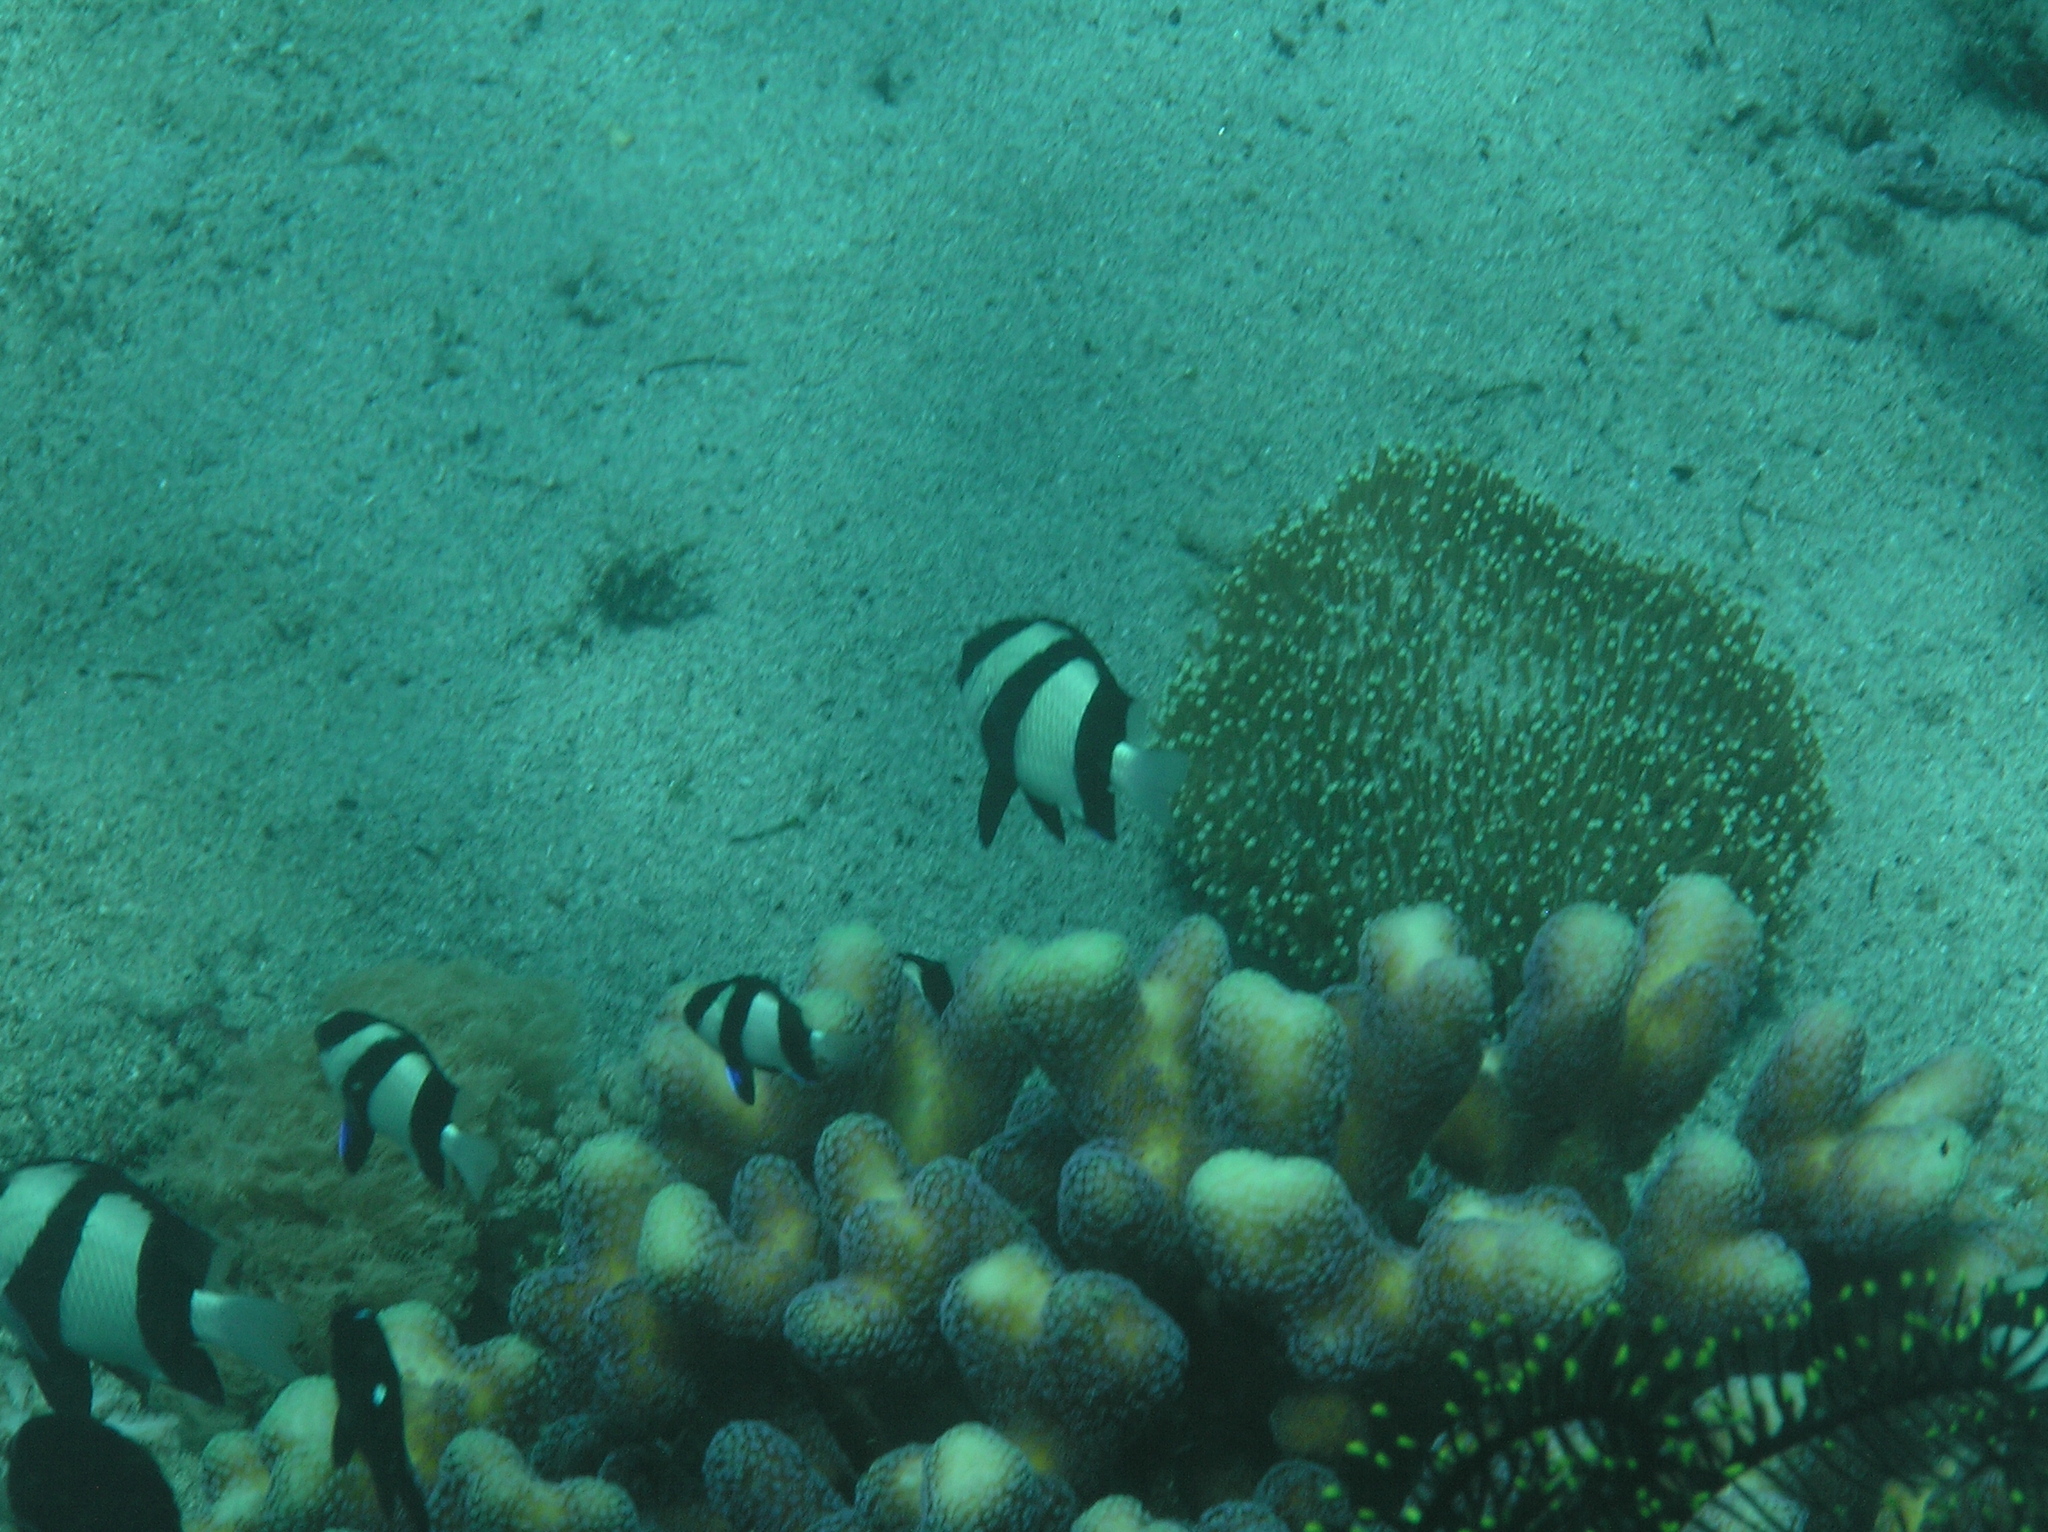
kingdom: Animalia
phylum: Chordata
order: Perciformes
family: Pomacentridae
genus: Dascyllus
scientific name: Dascyllus aruanus
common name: Humbug dascyllus
